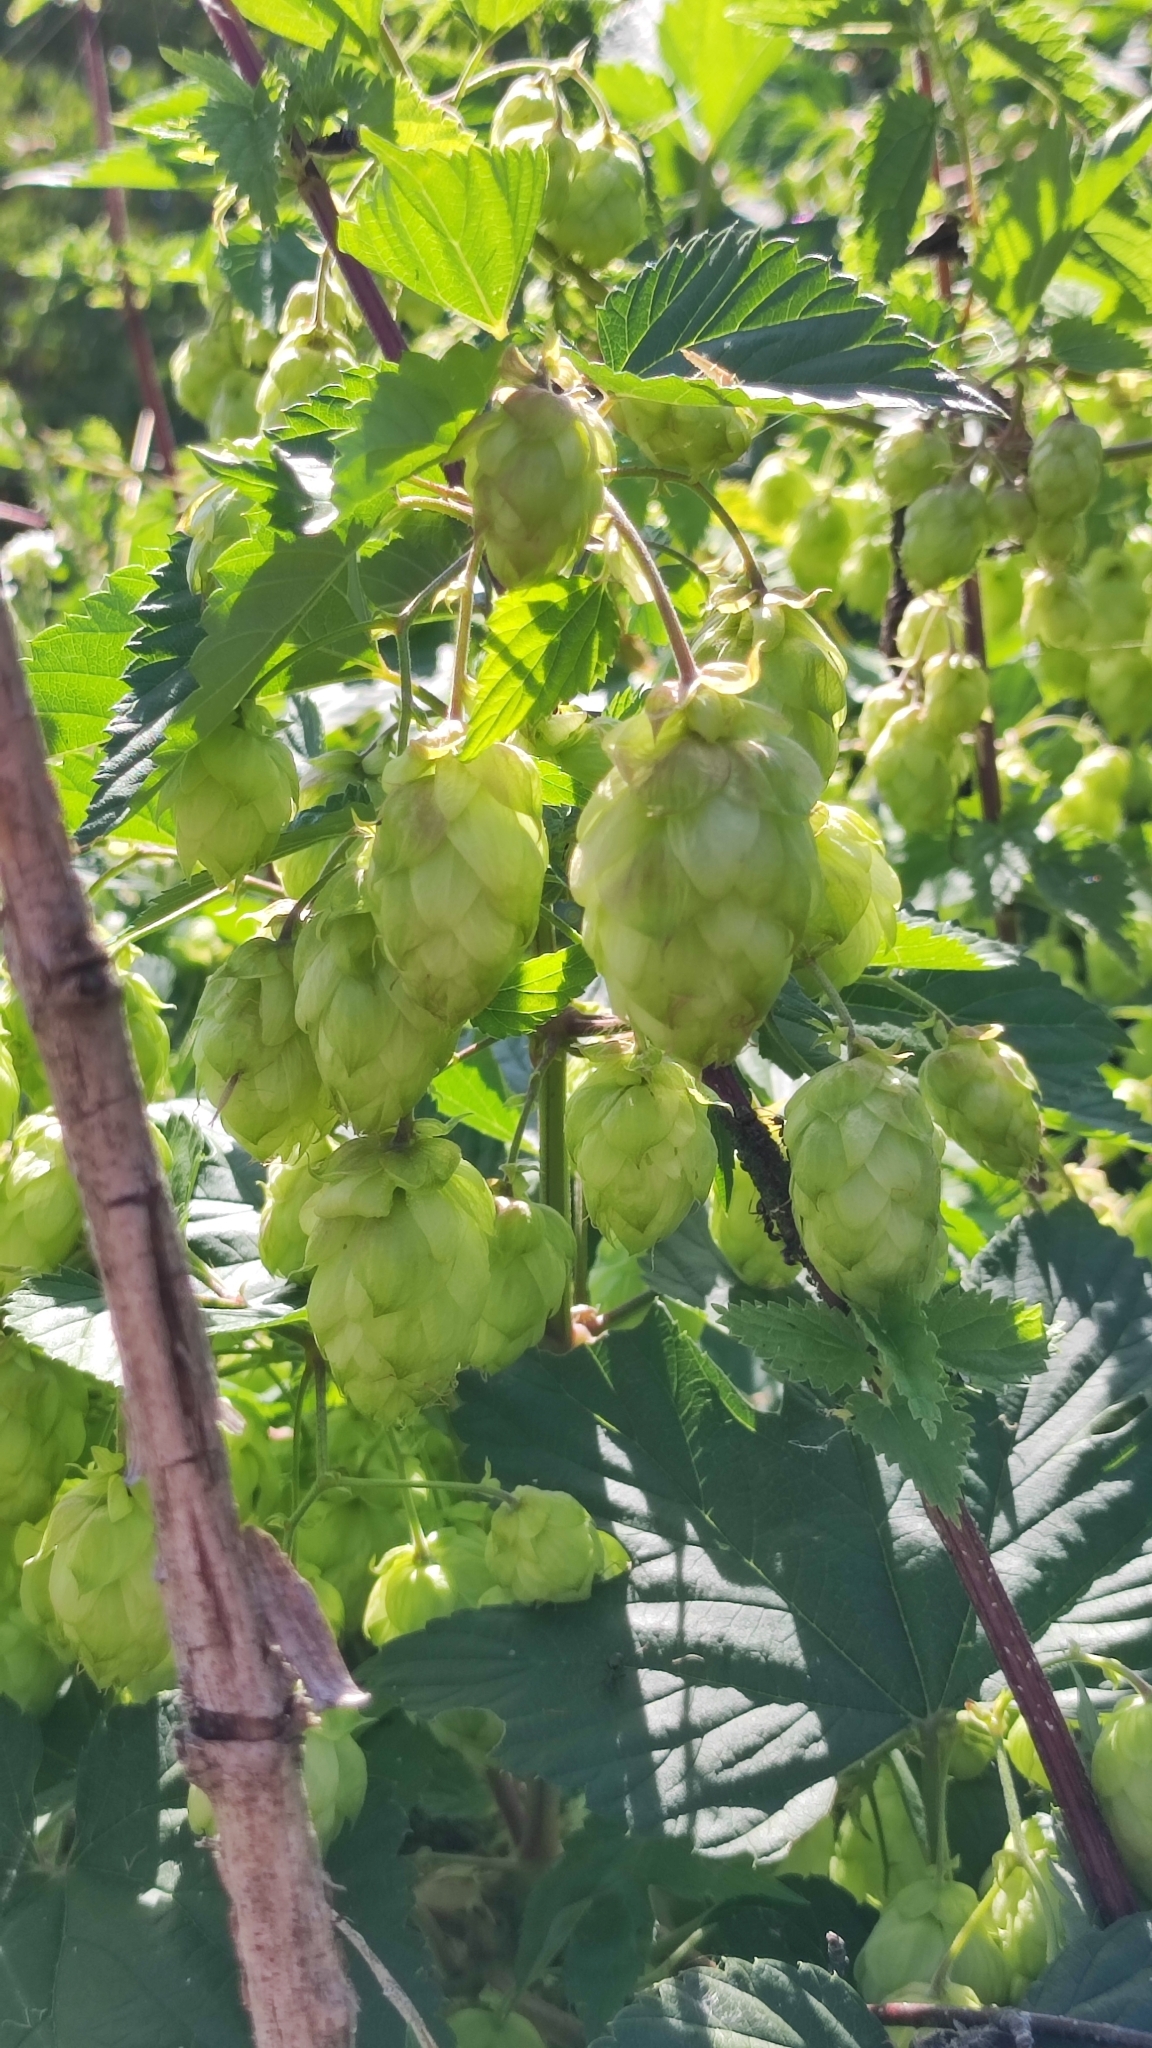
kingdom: Plantae
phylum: Tracheophyta
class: Magnoliopsida
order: Rosales
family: Cannabaceae
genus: Humulus
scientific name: Humulus lupulus
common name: Hop
